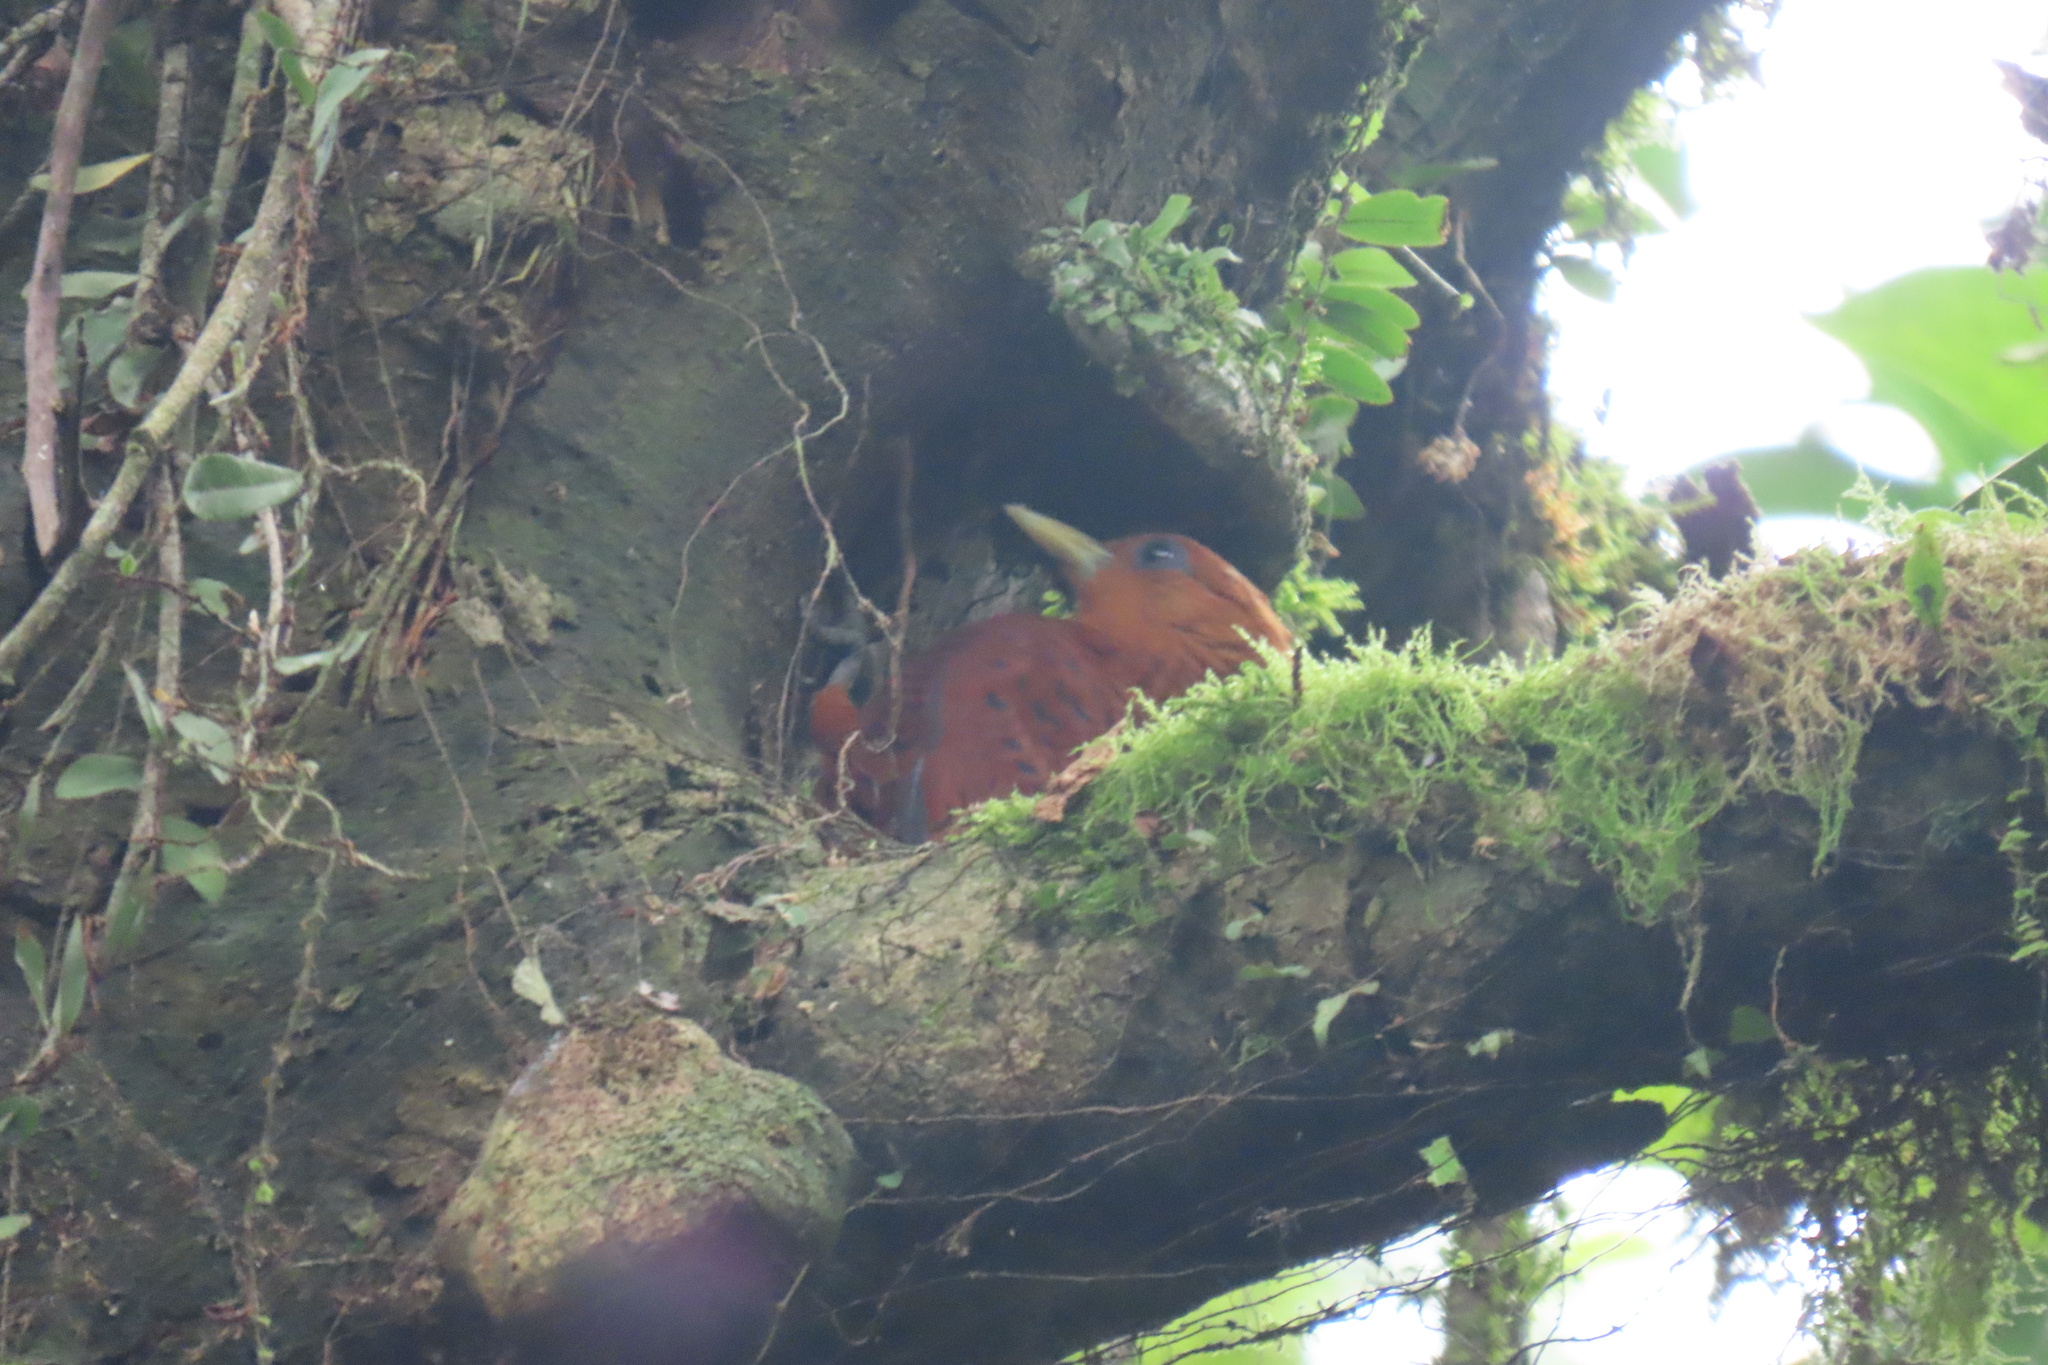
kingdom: Animalia
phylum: Chordata
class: Aves
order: Piciformes
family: Picidae
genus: Celeus
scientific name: Celeus castaneus
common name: Chestnut-colored woodpecker
